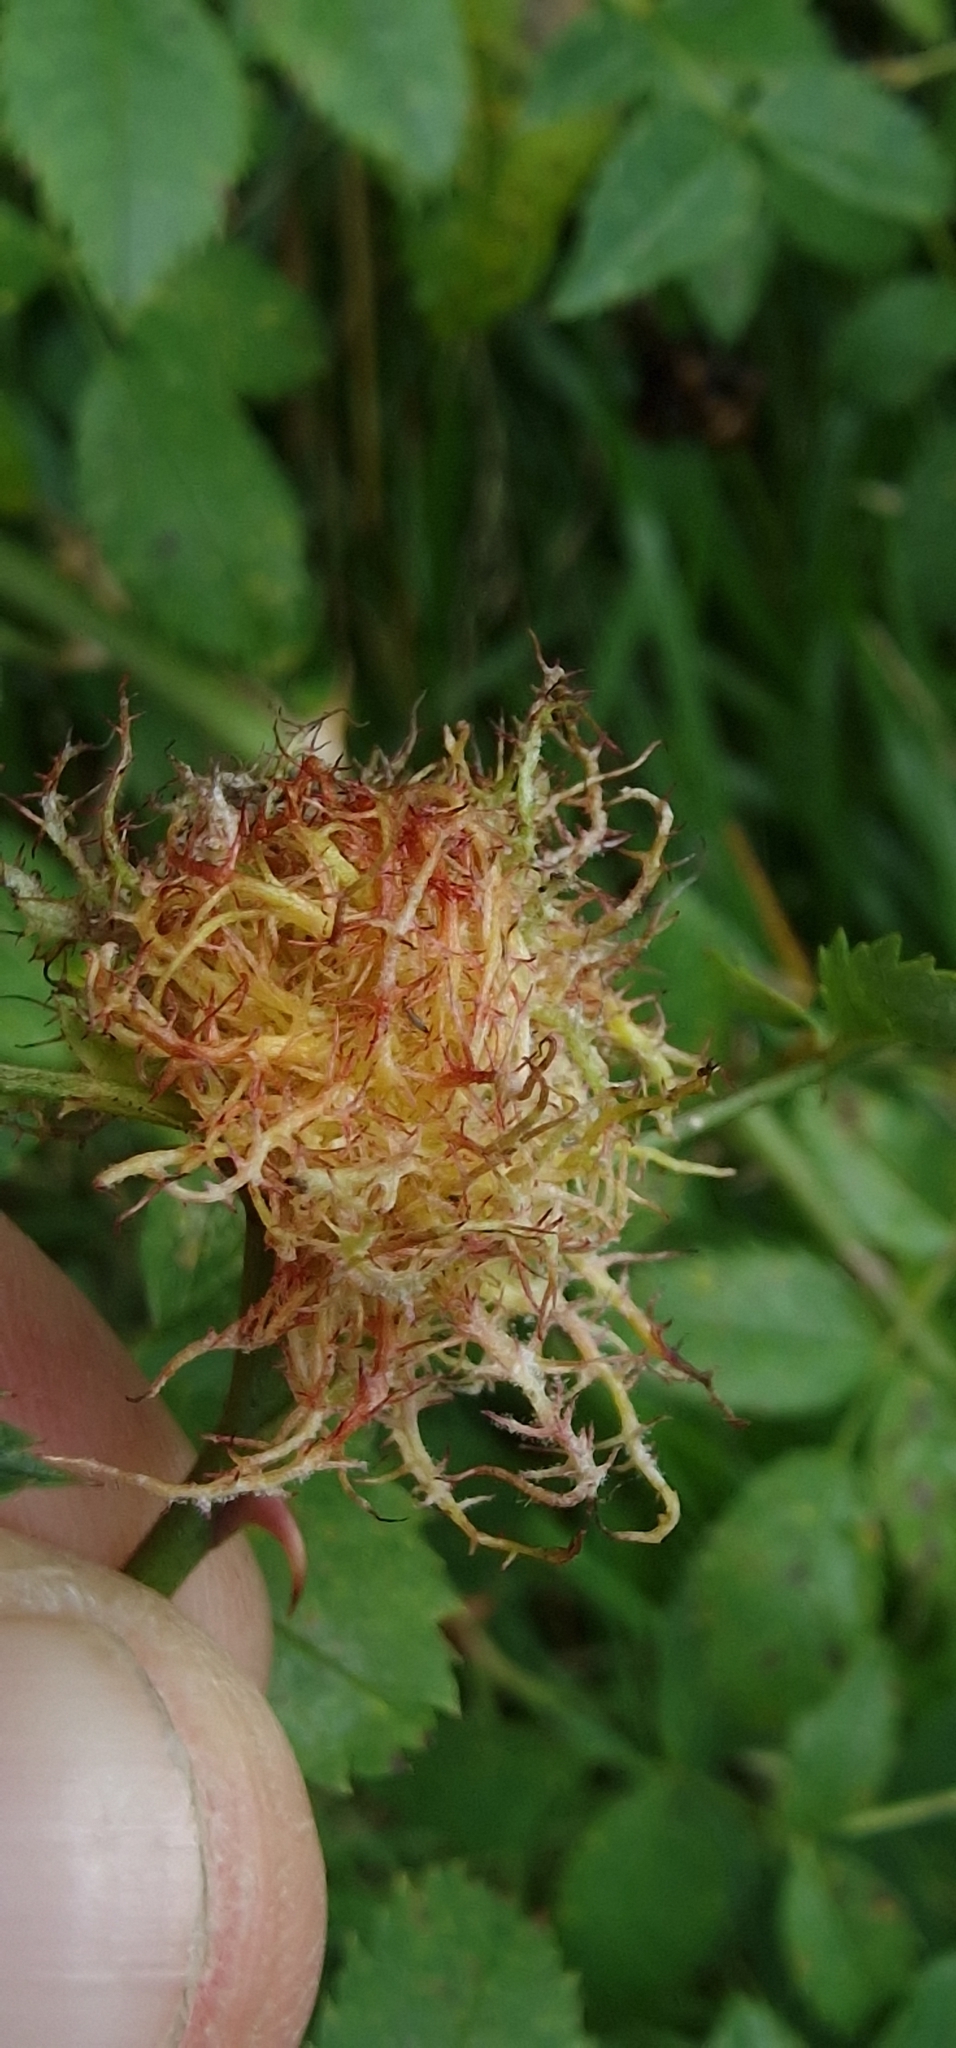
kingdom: Animalia
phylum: Arthropoda
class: Insecta
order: Hymenoptera
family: Cynipidae
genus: Diplolepis
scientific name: Diplolepis rosae
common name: Bedeguar gall
